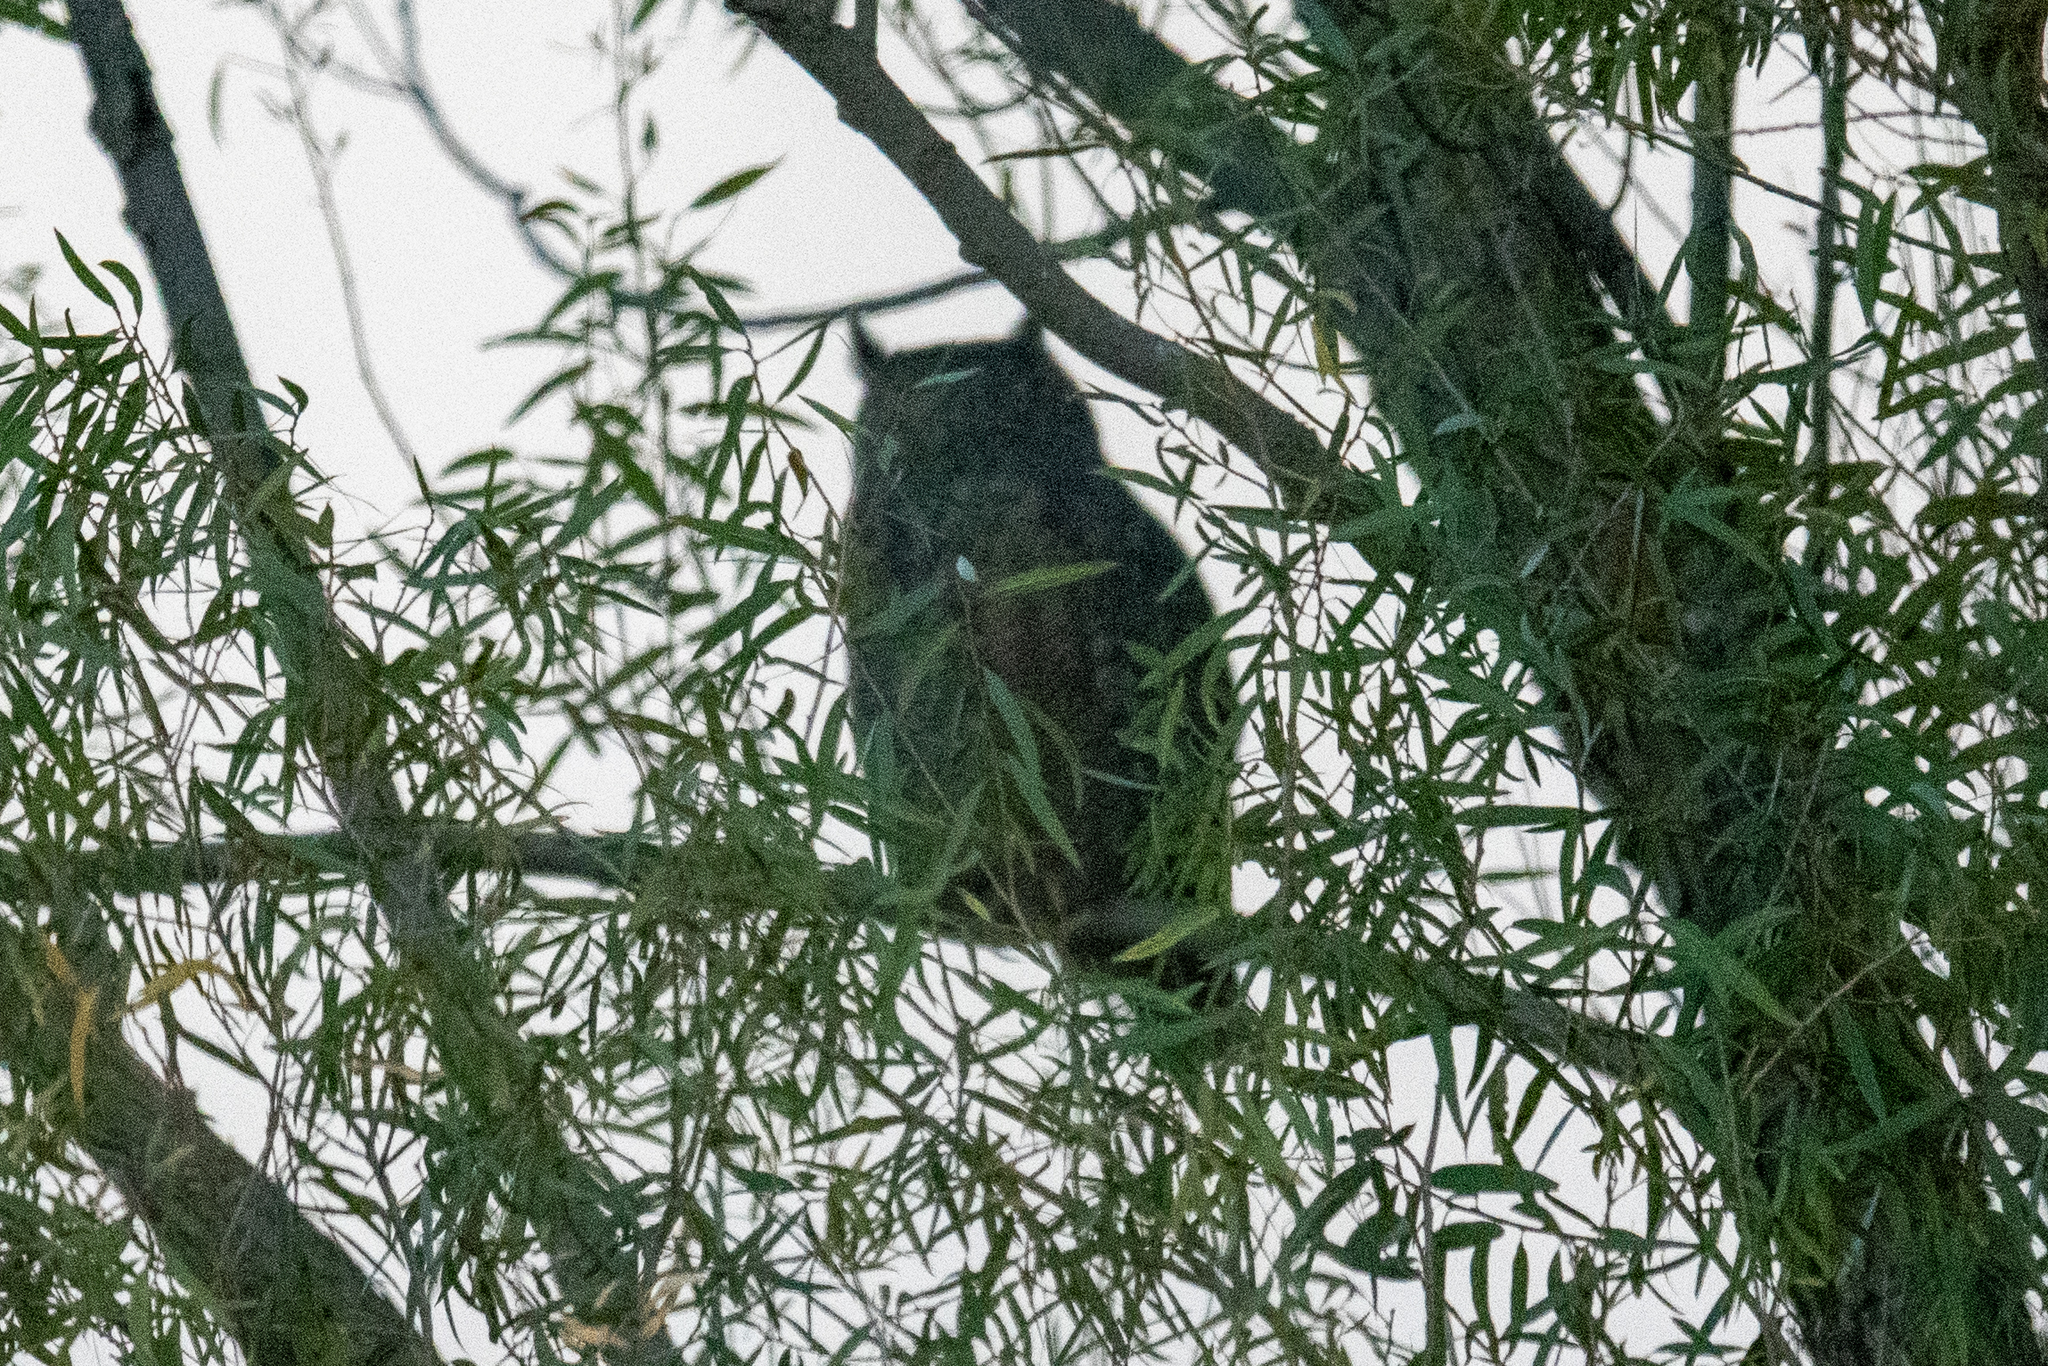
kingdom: Animalia
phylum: Chordata
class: Aves
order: Strigiformes
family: Strigidae
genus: Bubo
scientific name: Bubo virginianus
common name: Great horned owl
